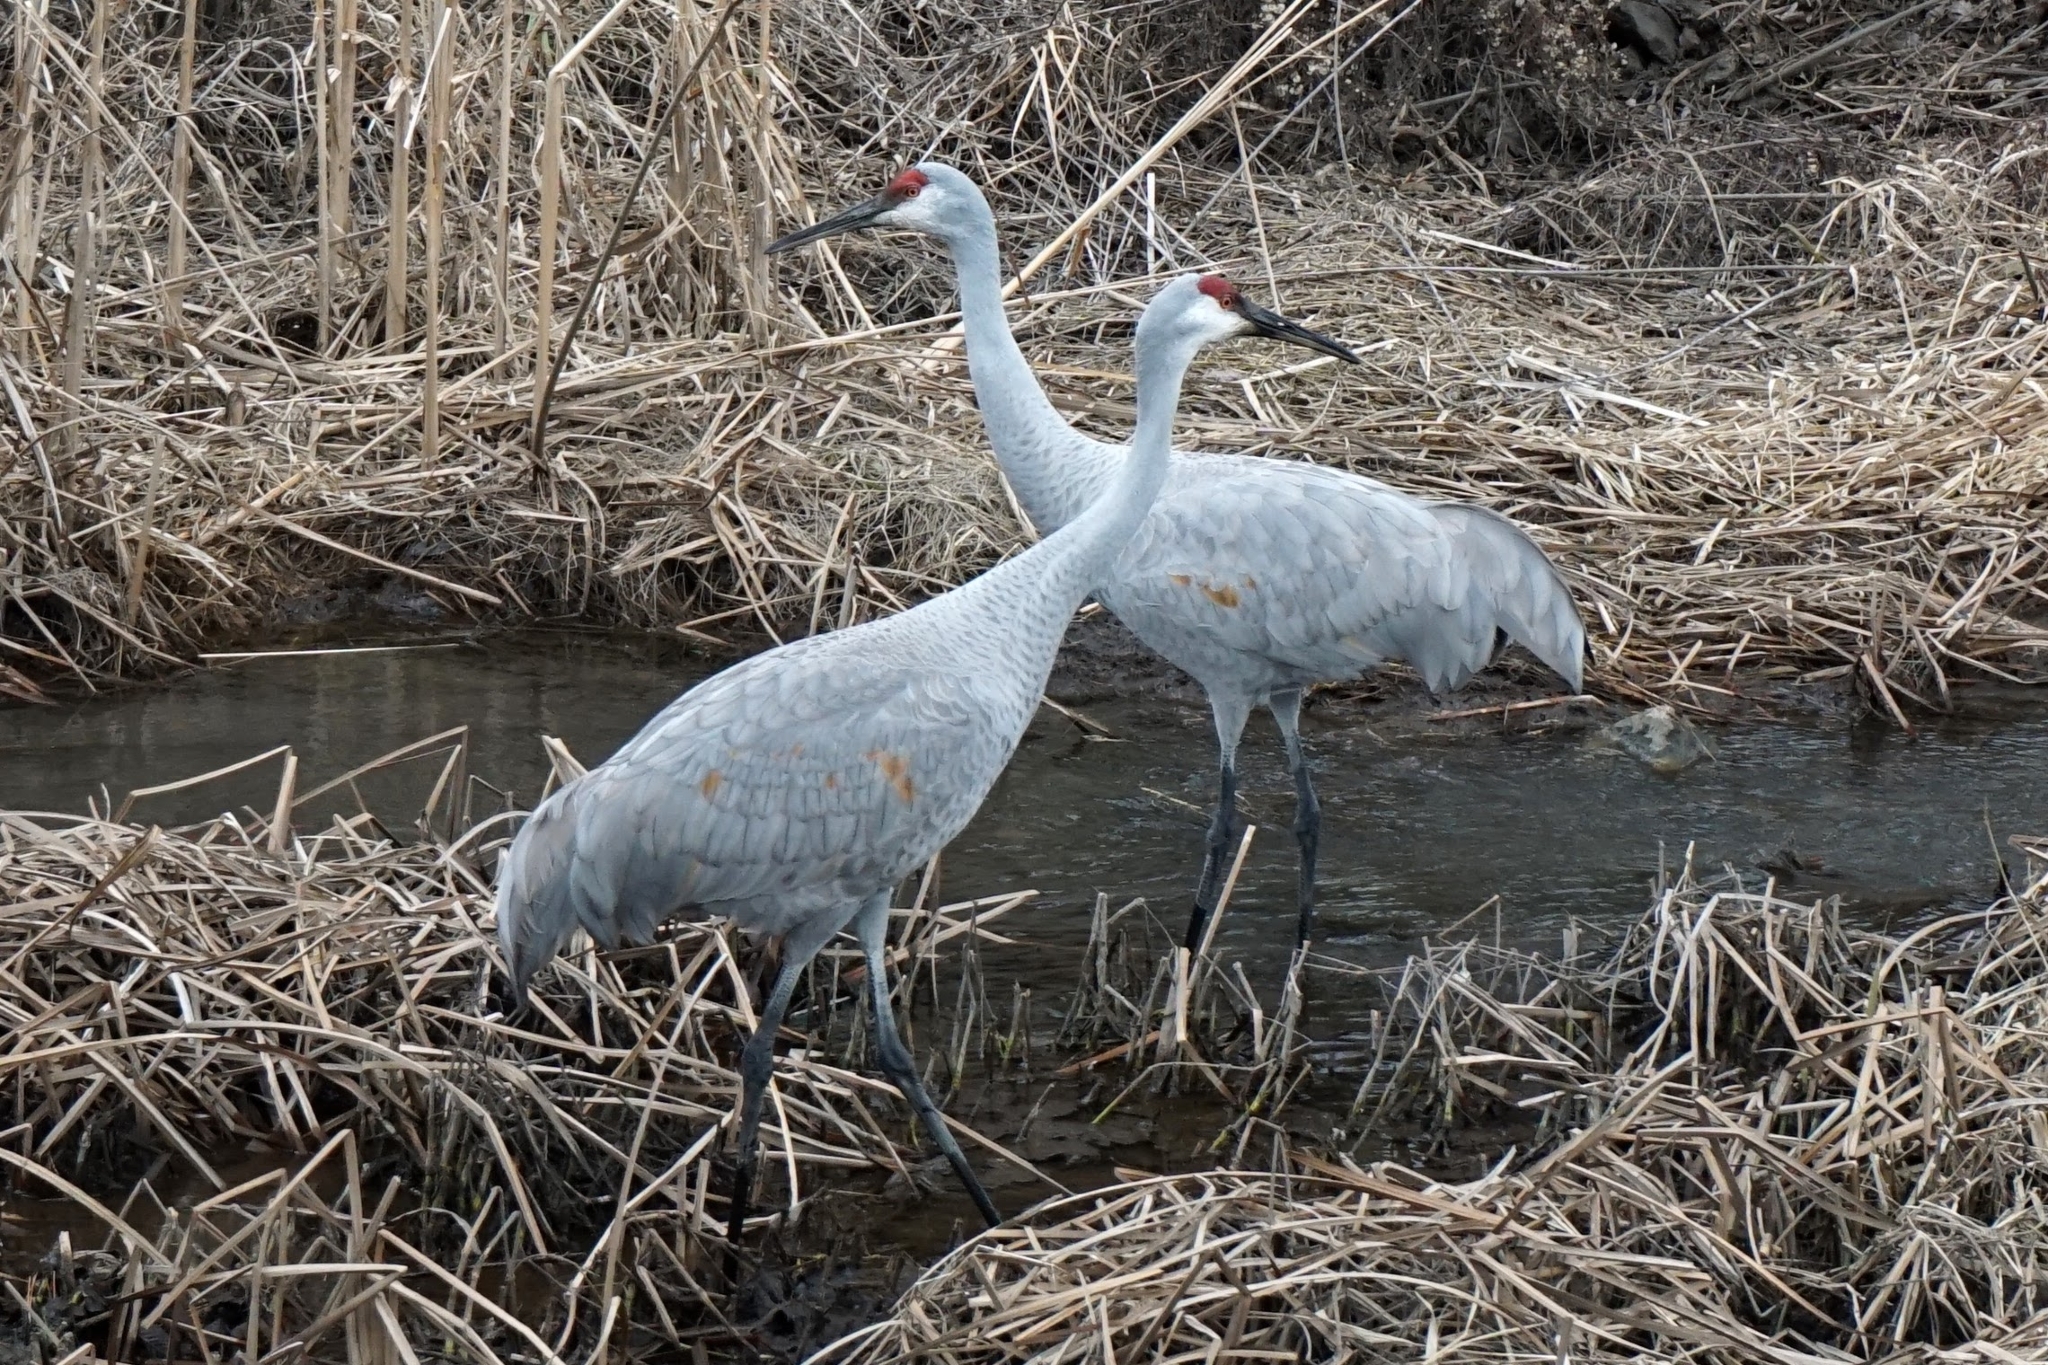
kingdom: Animalia
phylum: Chordata
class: Aves
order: Gruiformes
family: Gruidae
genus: Grus
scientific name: Grus canadensis
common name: Sandhill crane
